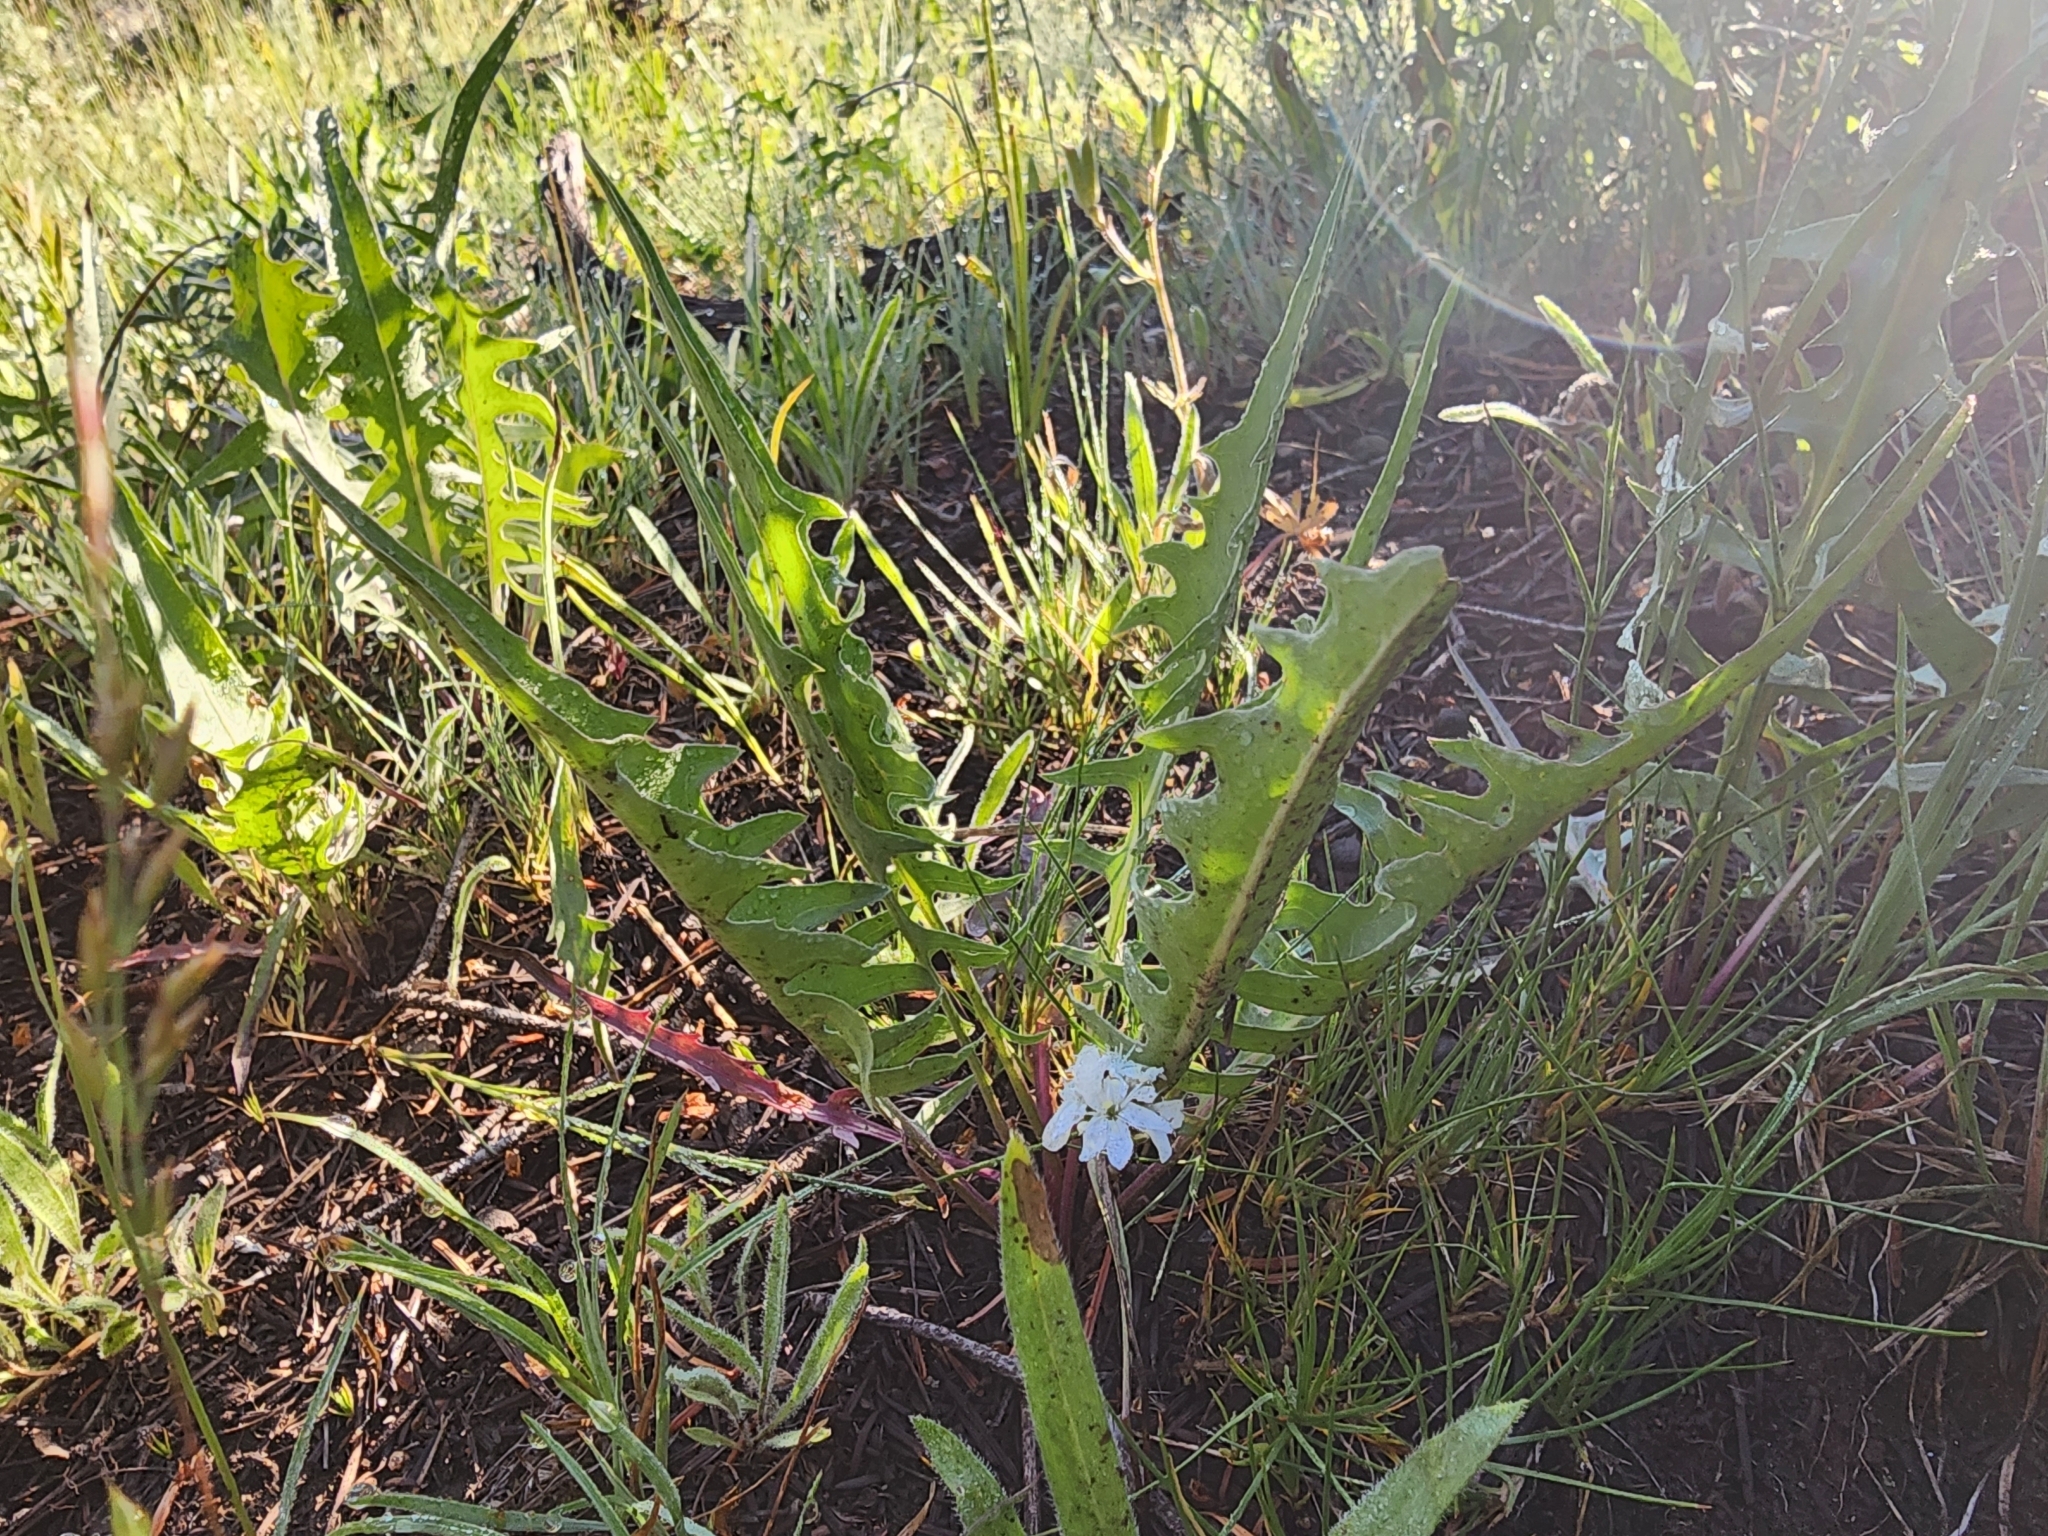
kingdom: Plantae
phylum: Tracheophyta
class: Magnoliopsida
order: Asterales
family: Asteraceae
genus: Crepis
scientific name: Crepis acuminata
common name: Longleaf hawk's-beard
